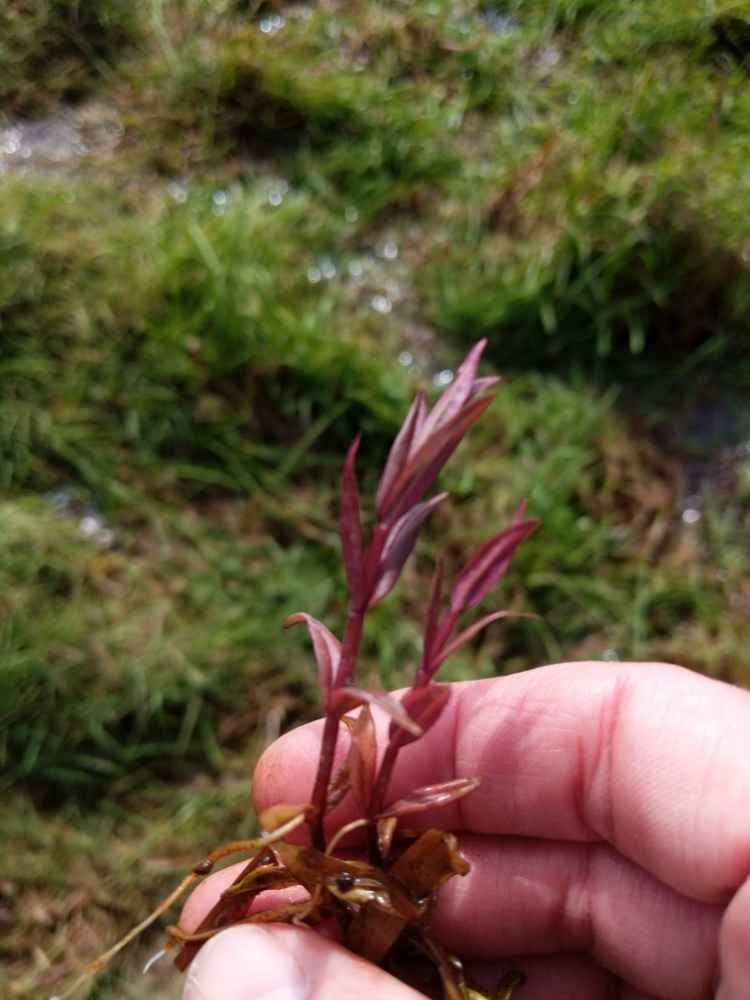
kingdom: Plantae
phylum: Tracheophyta
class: Magnoliopsida
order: Lamiales
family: Plantaginaceae
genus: Veronica
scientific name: Veronica scutellata
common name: Marsh speedwell
